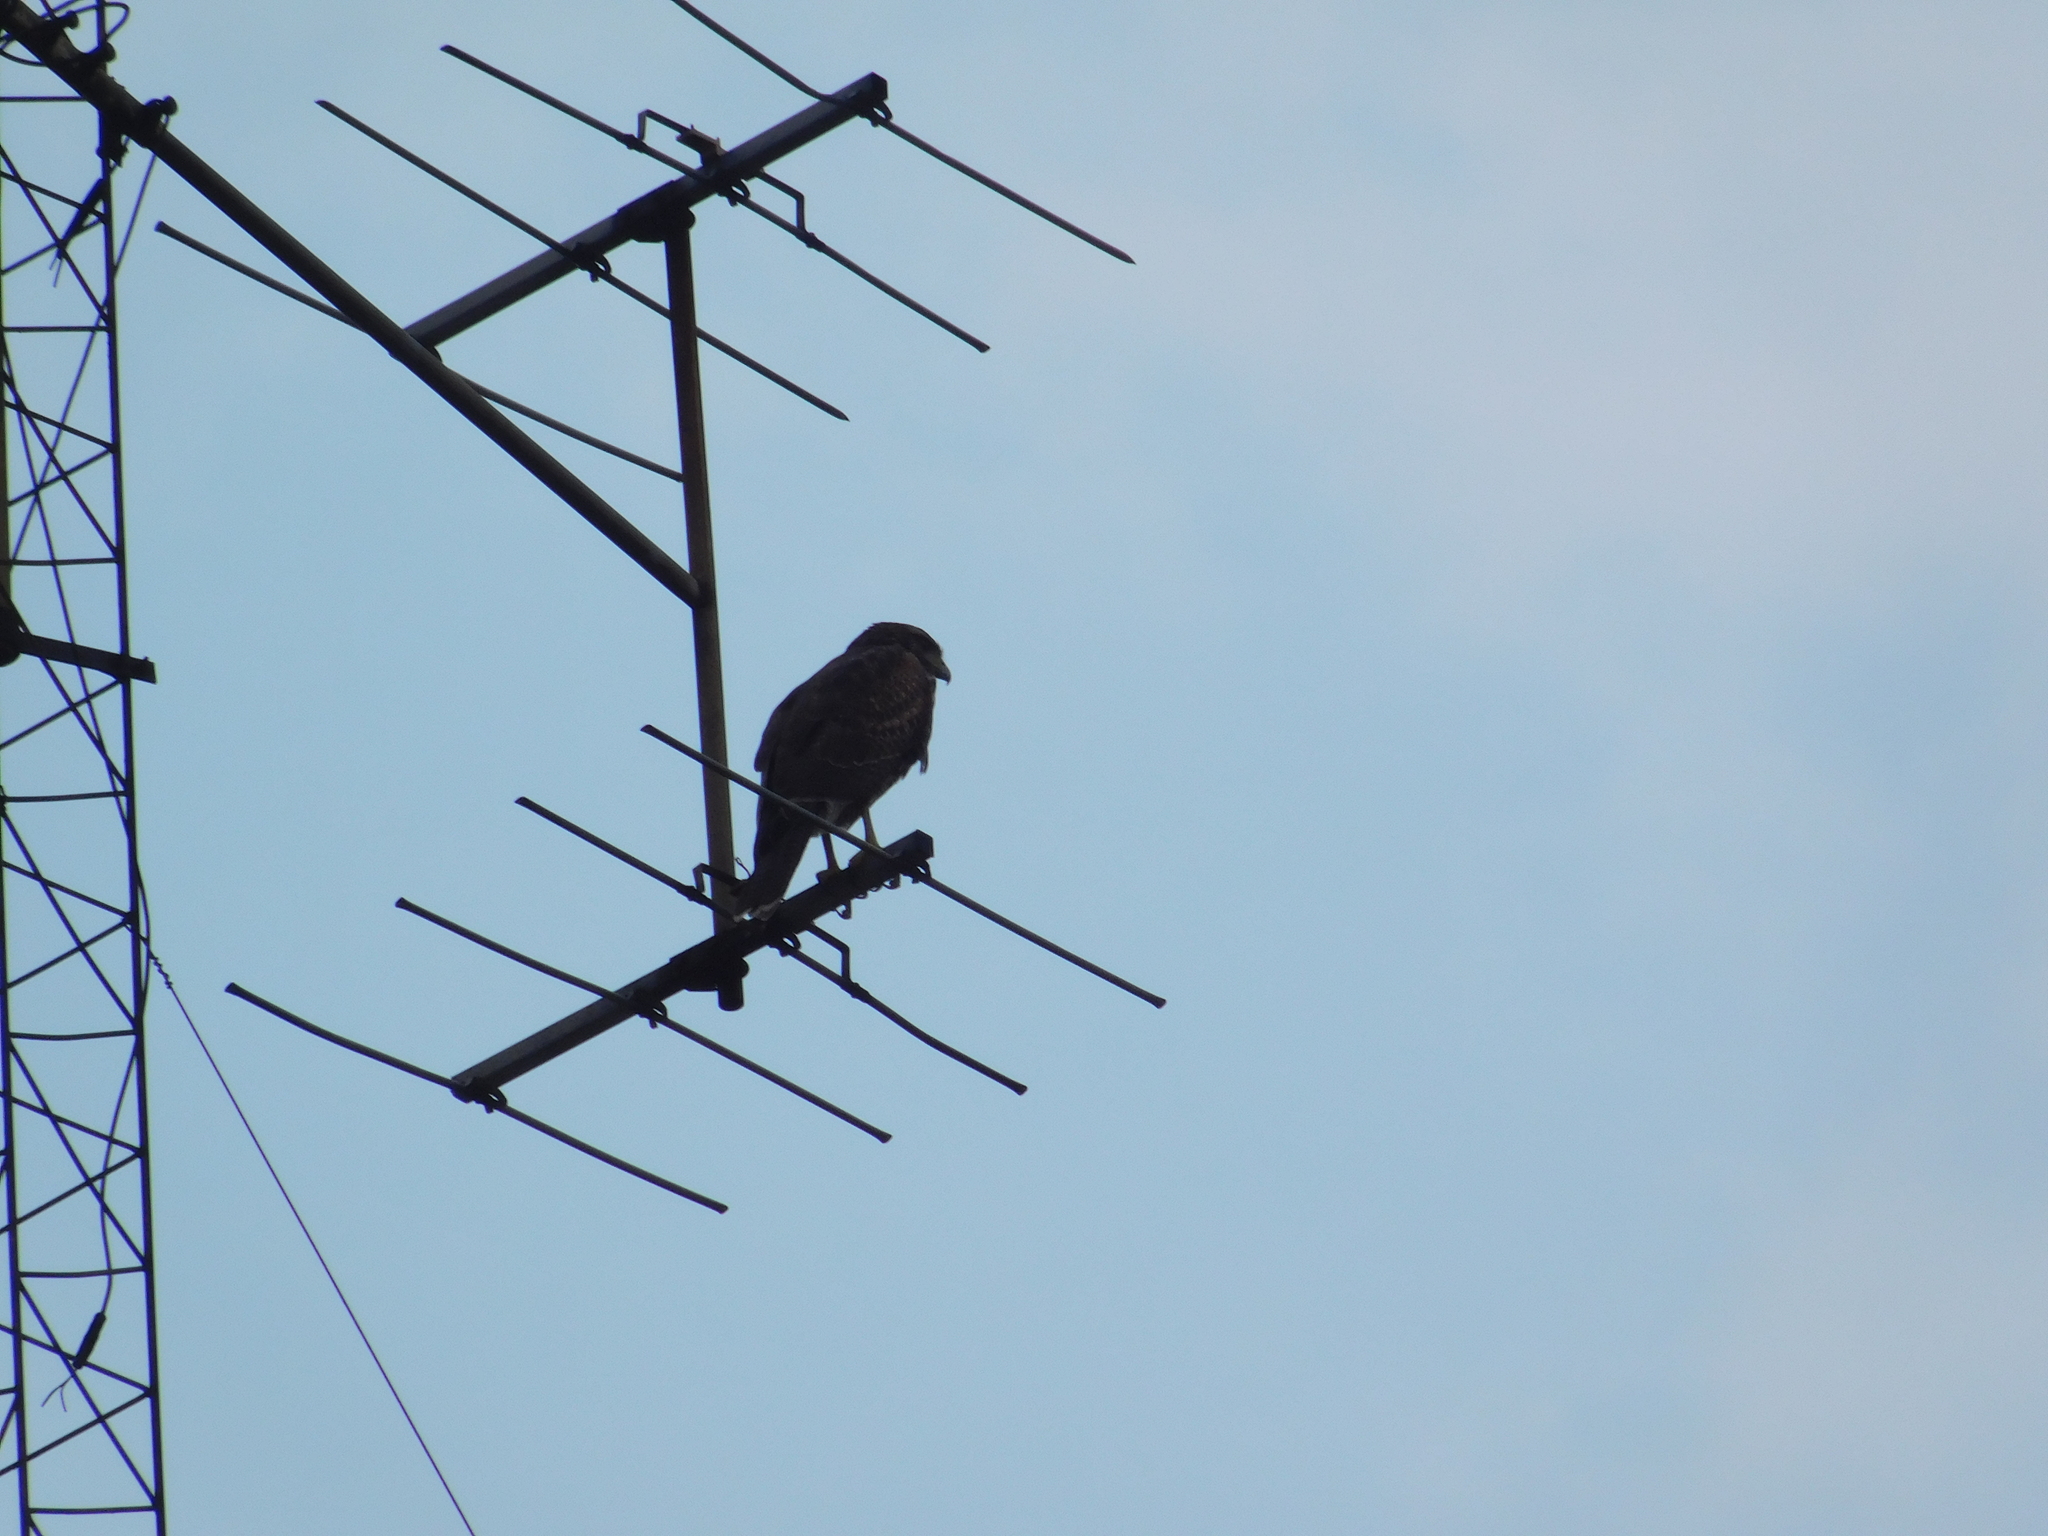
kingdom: Animalia
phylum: Chordata
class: Aves
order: Accipitriformes
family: Accipitridae
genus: Parabuteo
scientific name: Parabuteo unicinctus
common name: Harris's hawk
